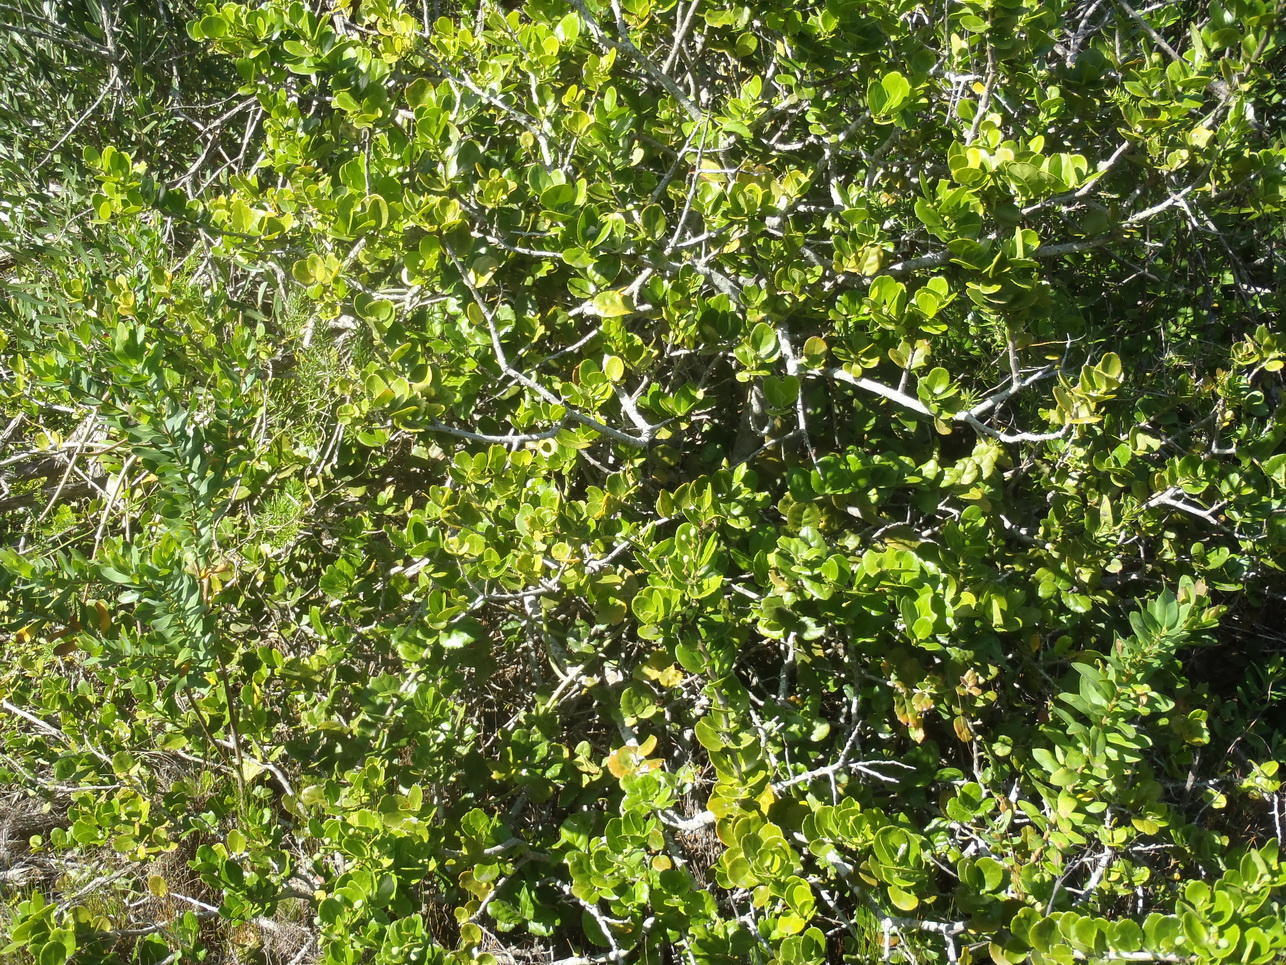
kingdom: Plantae
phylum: Tracheophyta
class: Magnoliopsida
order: Celastrales
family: Celastraceae
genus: Mystroxylon
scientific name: Mystroxylon aethiopicum
